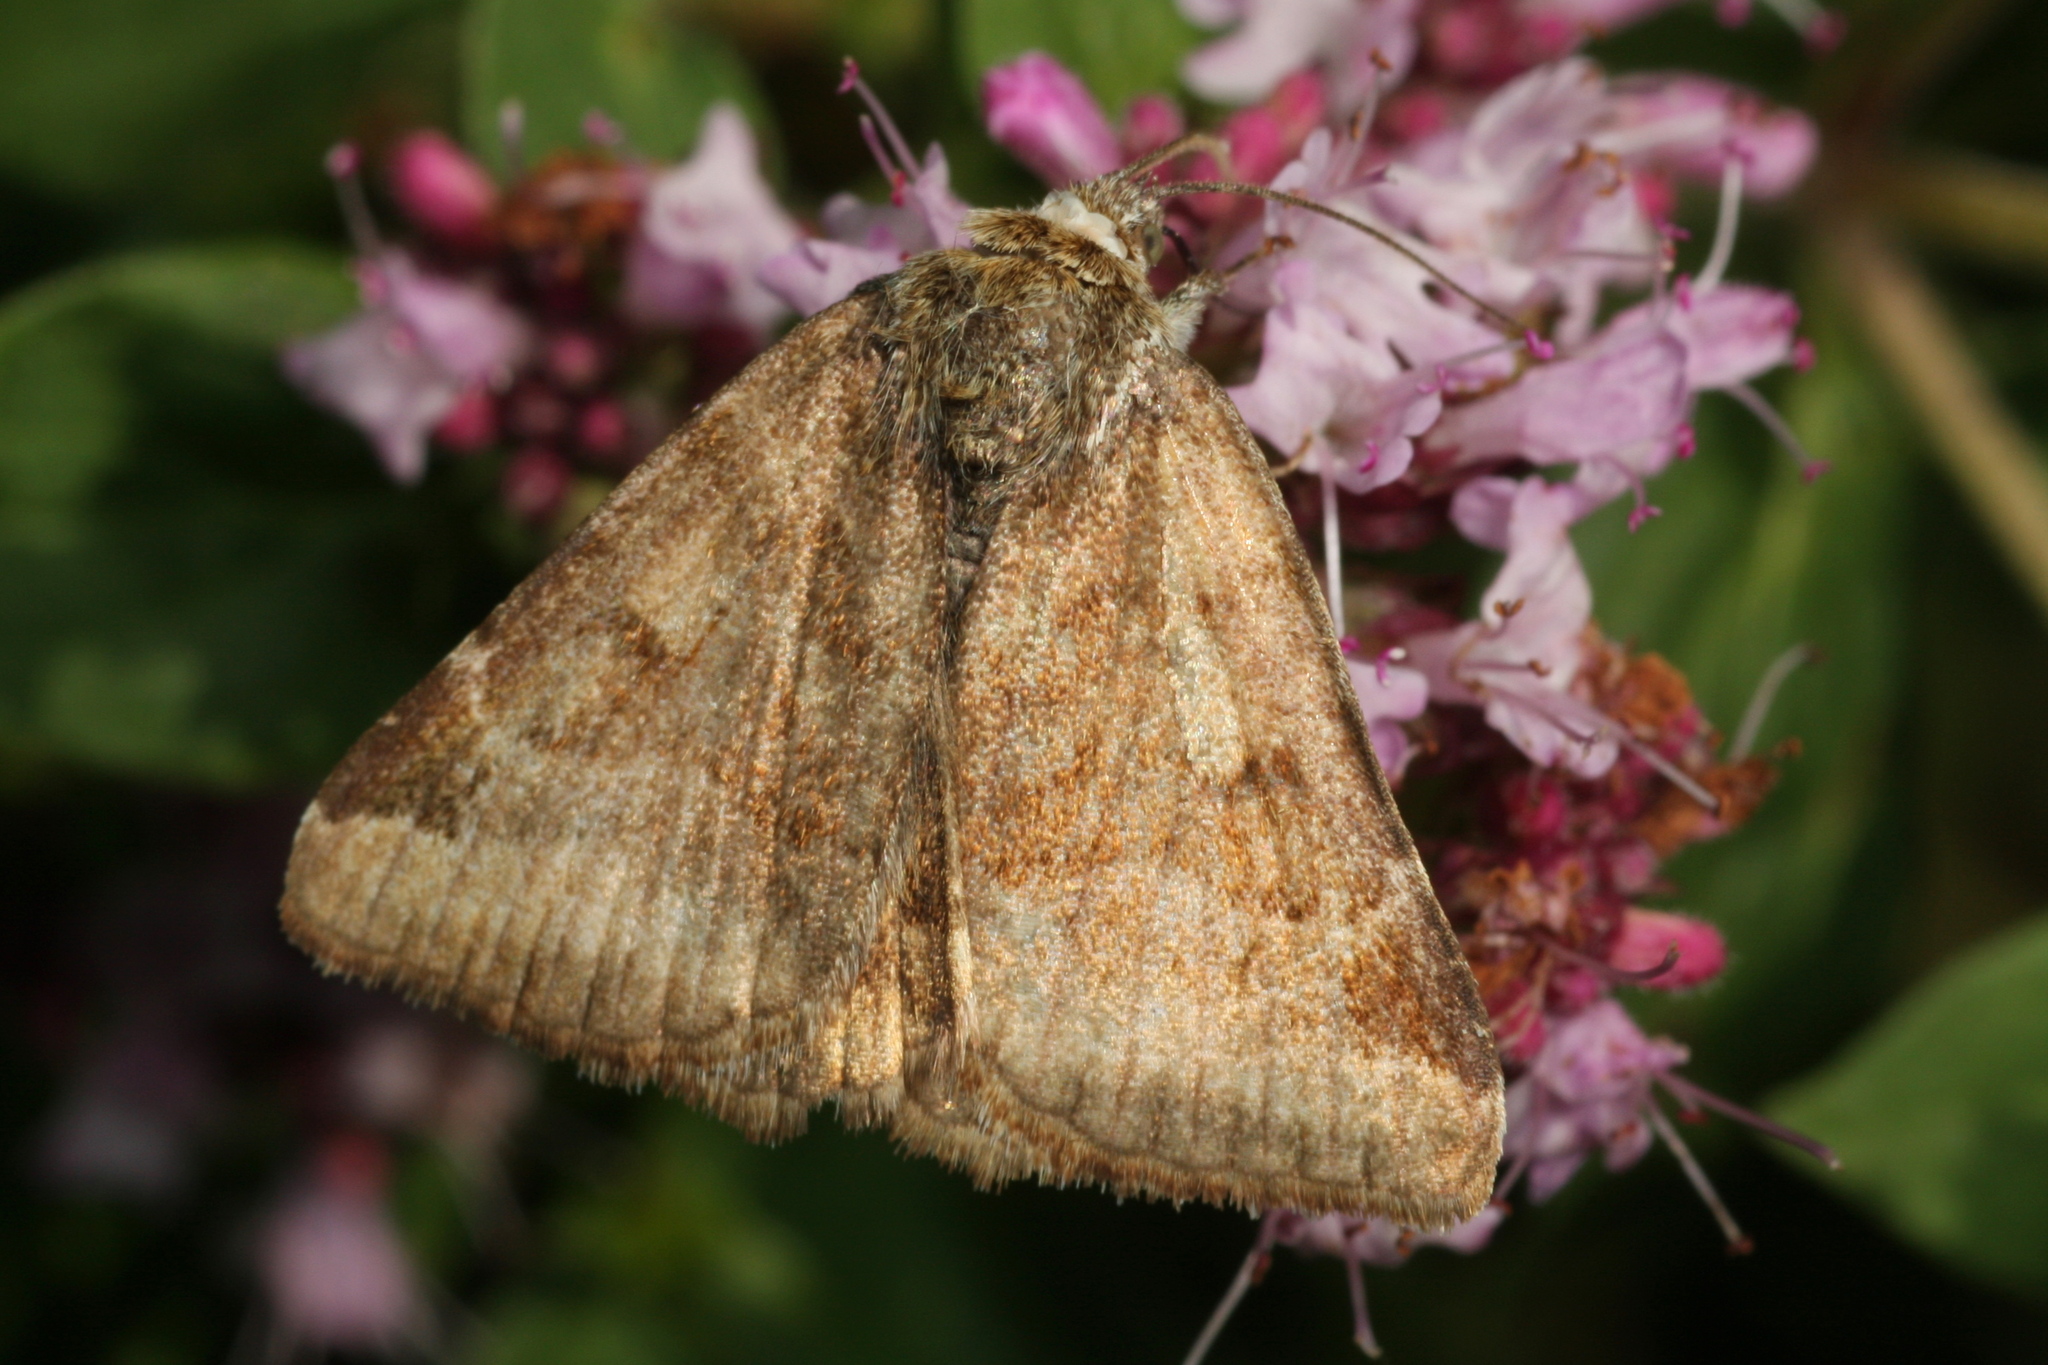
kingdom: Animalia
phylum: Arthropoda
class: Insecta
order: Lepidoptera
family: Erebidae
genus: Euclidia
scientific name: Euclidia glyphica
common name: Burnet companion
